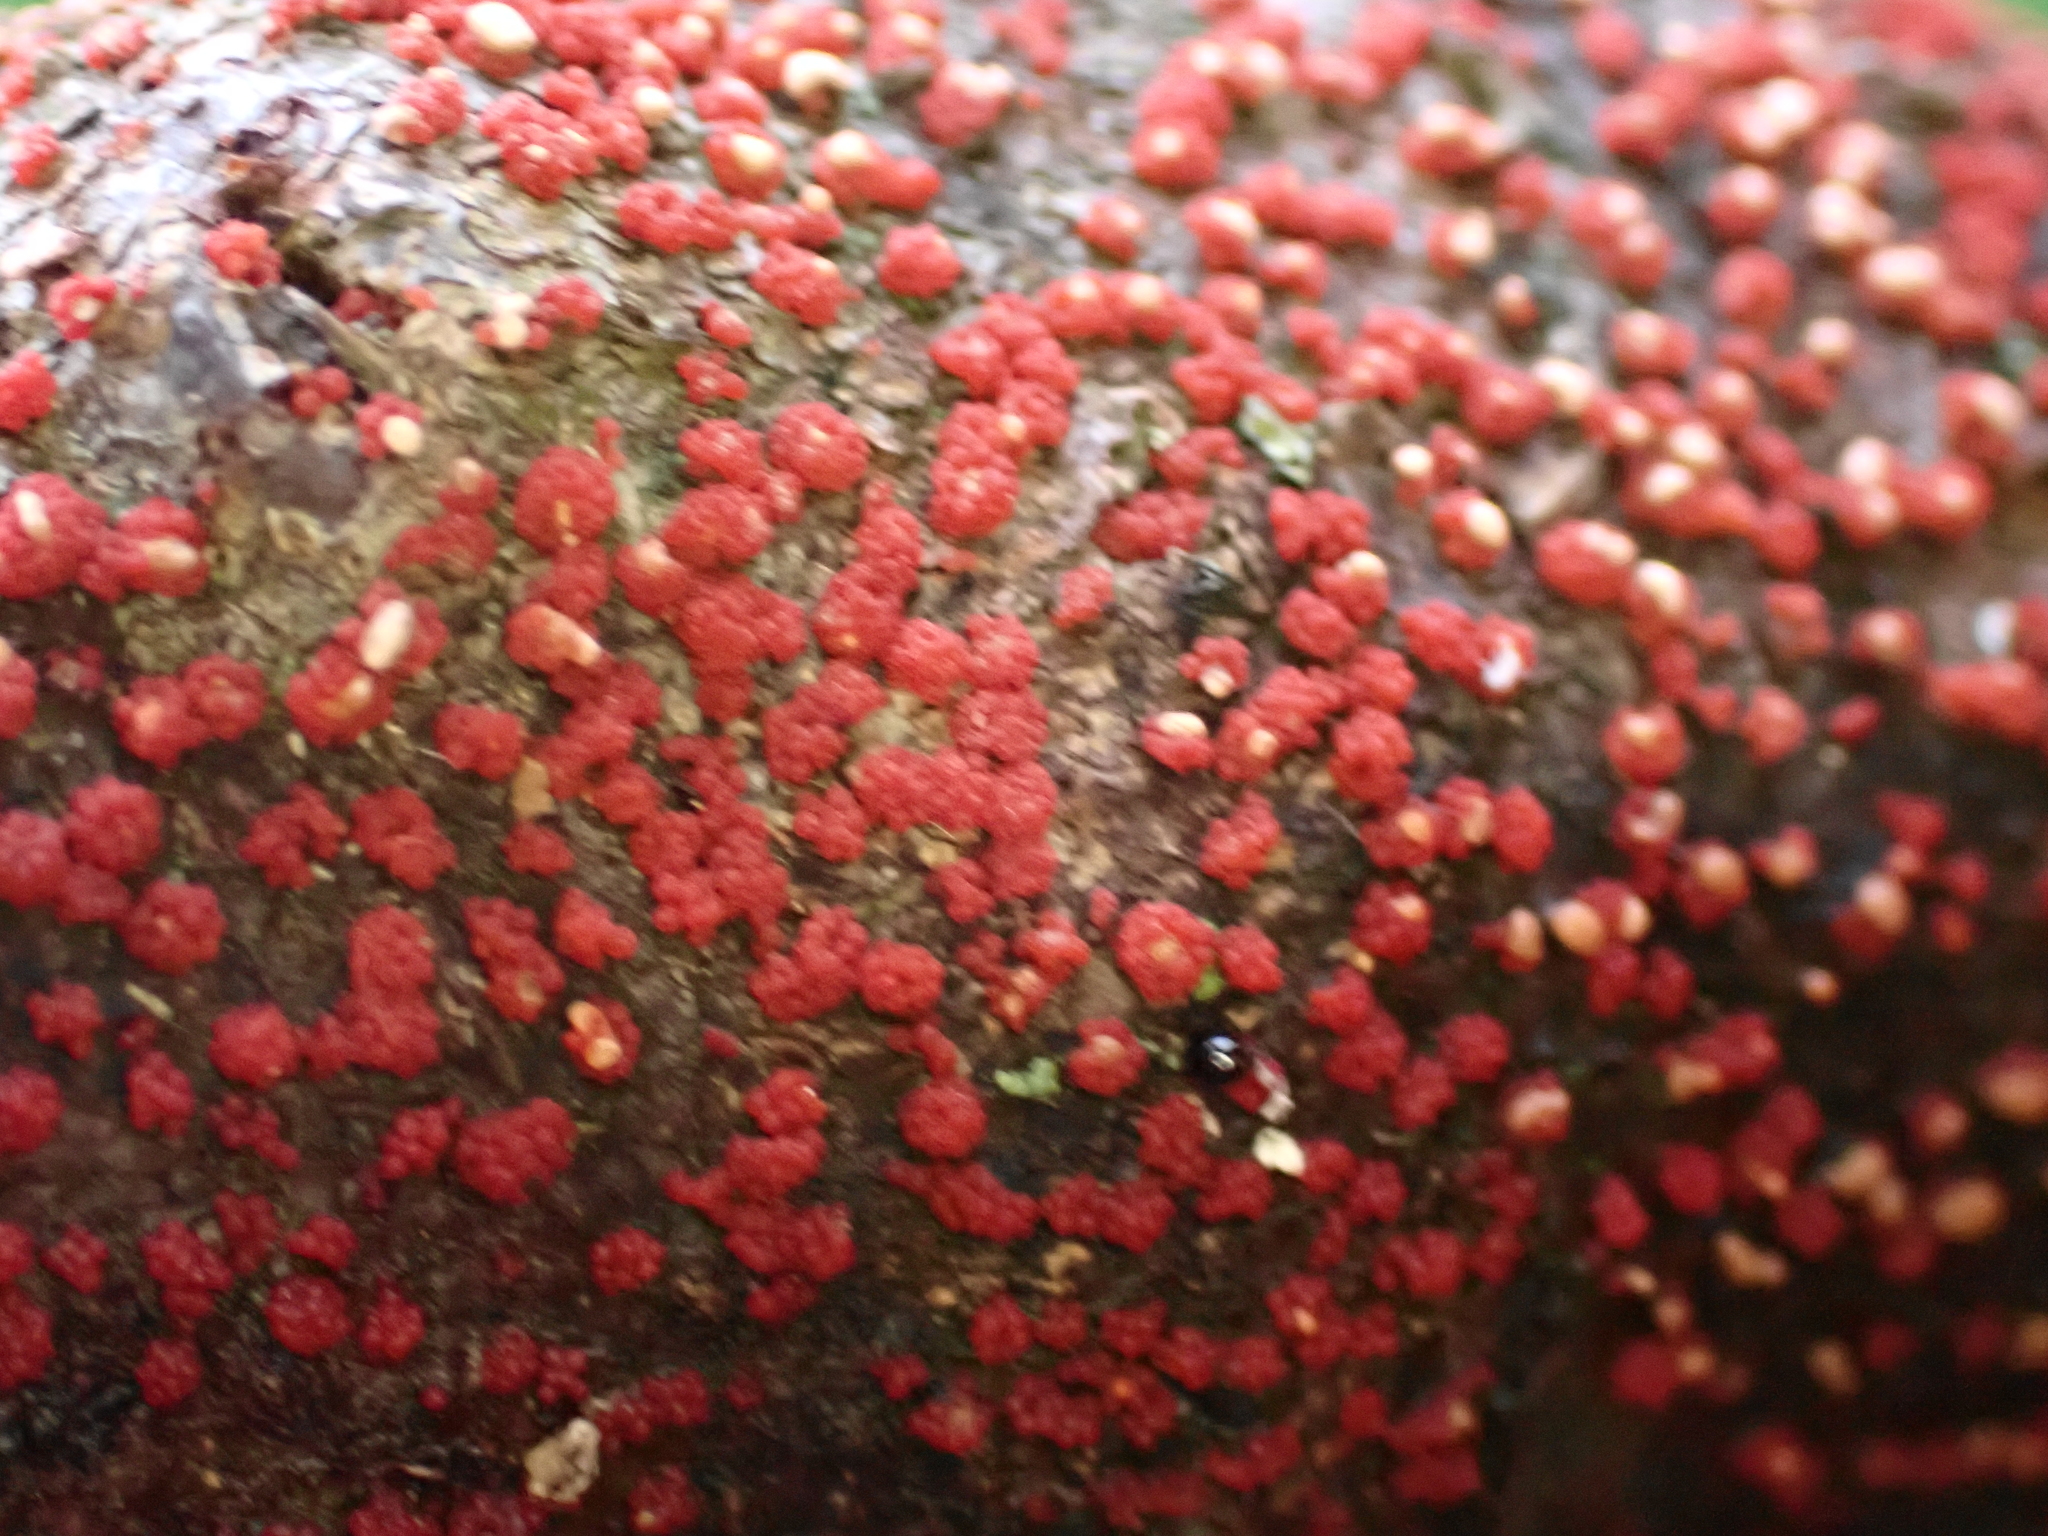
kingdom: Fungi
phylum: Ascomycota
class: Sordariomycetes
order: Hypocreales
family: Nectriaceae
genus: Nectria
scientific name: Nectria cinnabarina
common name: Coral spot
